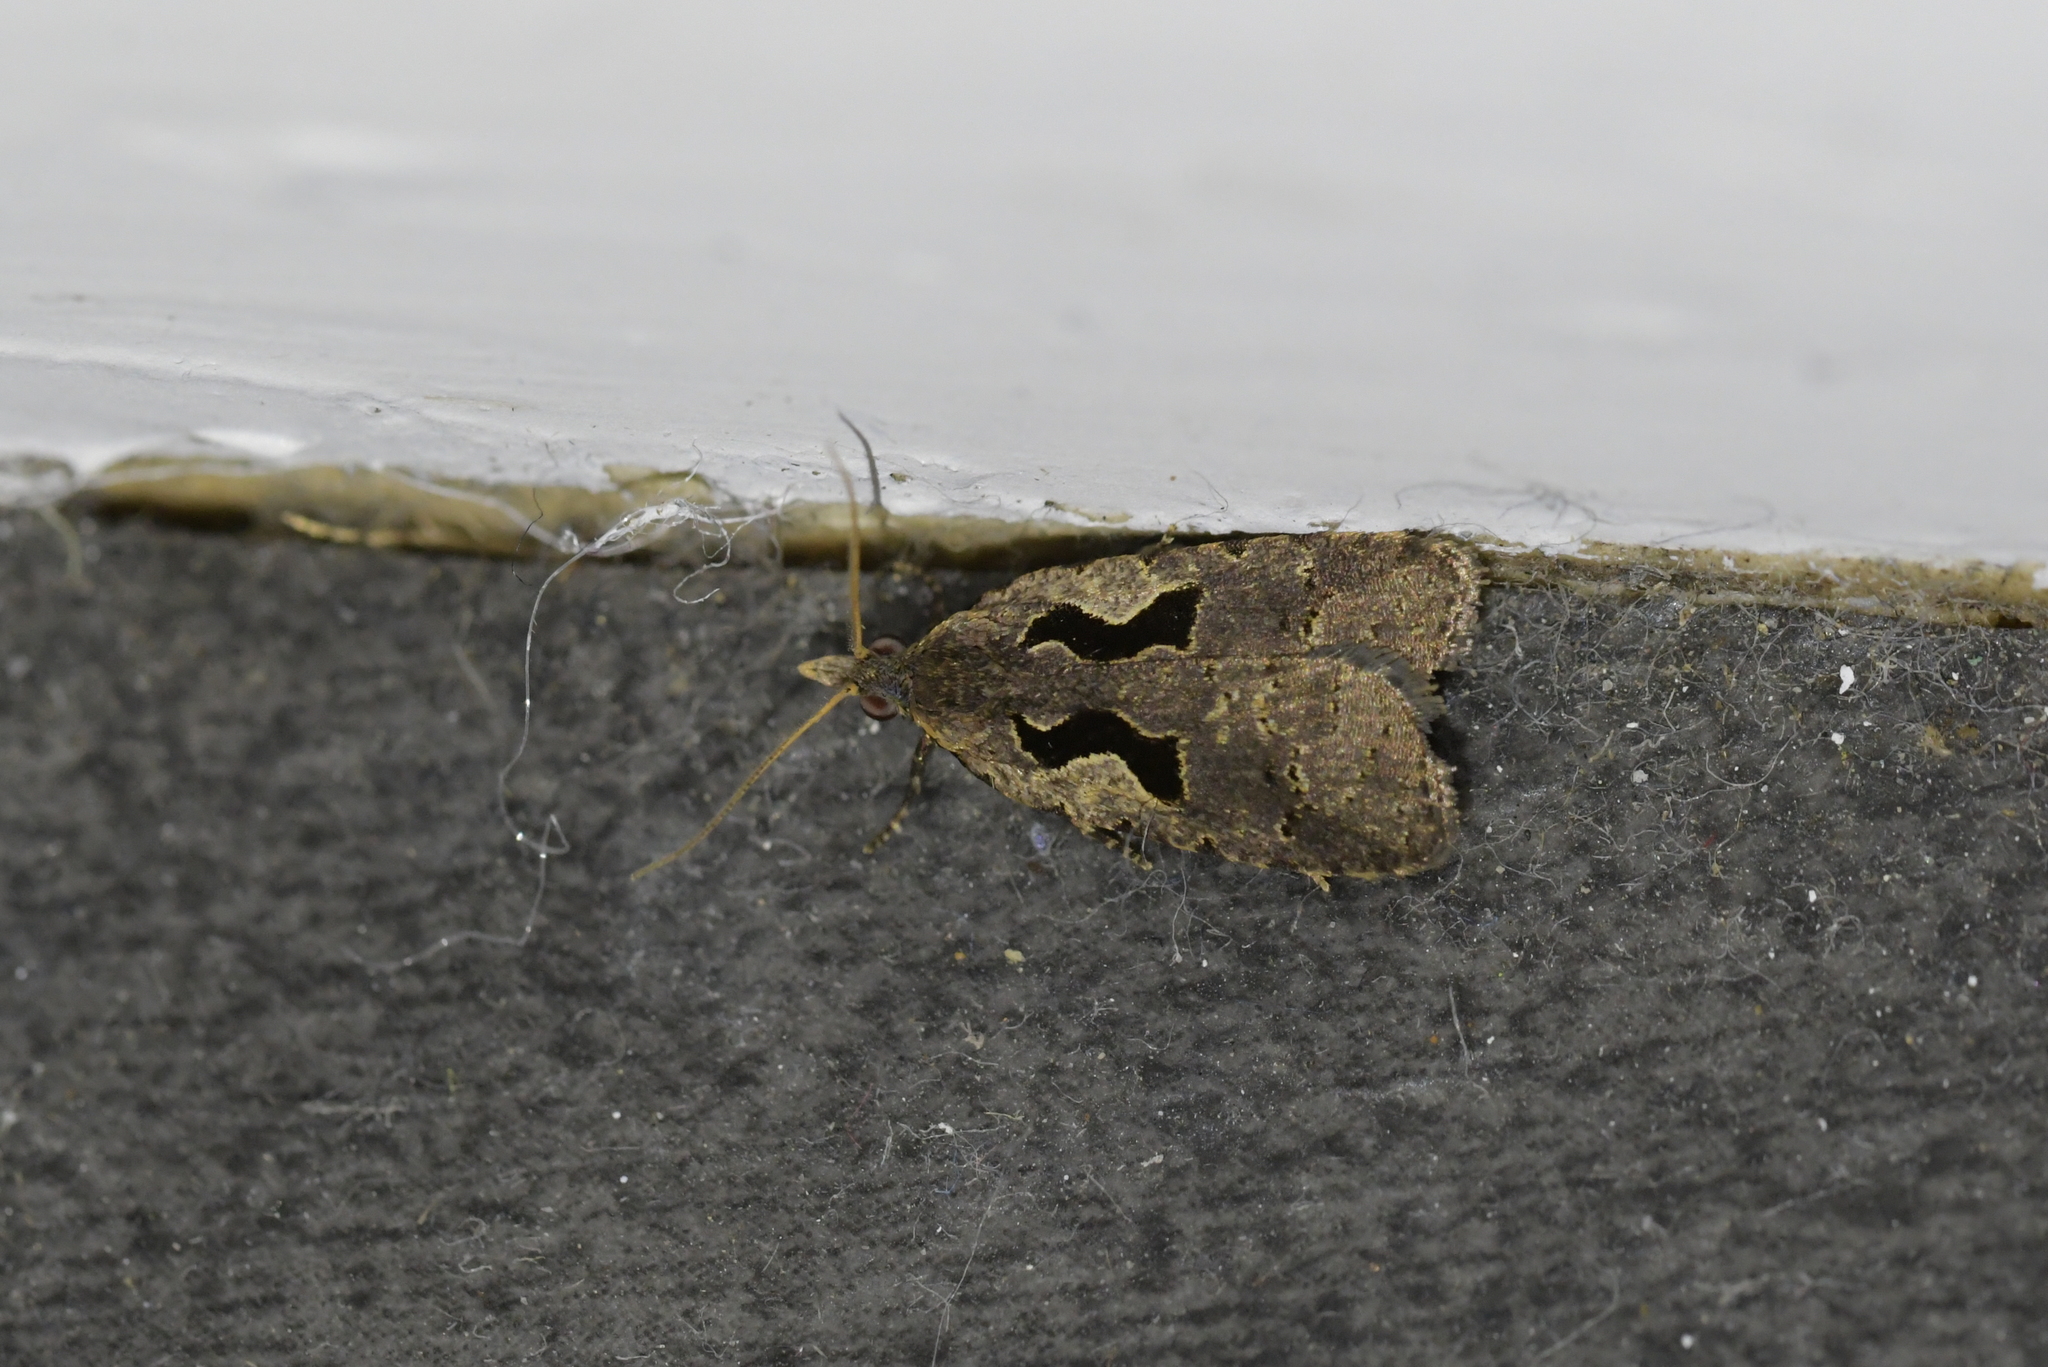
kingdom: Animalia
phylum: Arthropoda
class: Insecta
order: Lepidoptera
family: Tortricidae
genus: Cnephasia
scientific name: Cnephasia jactatana
